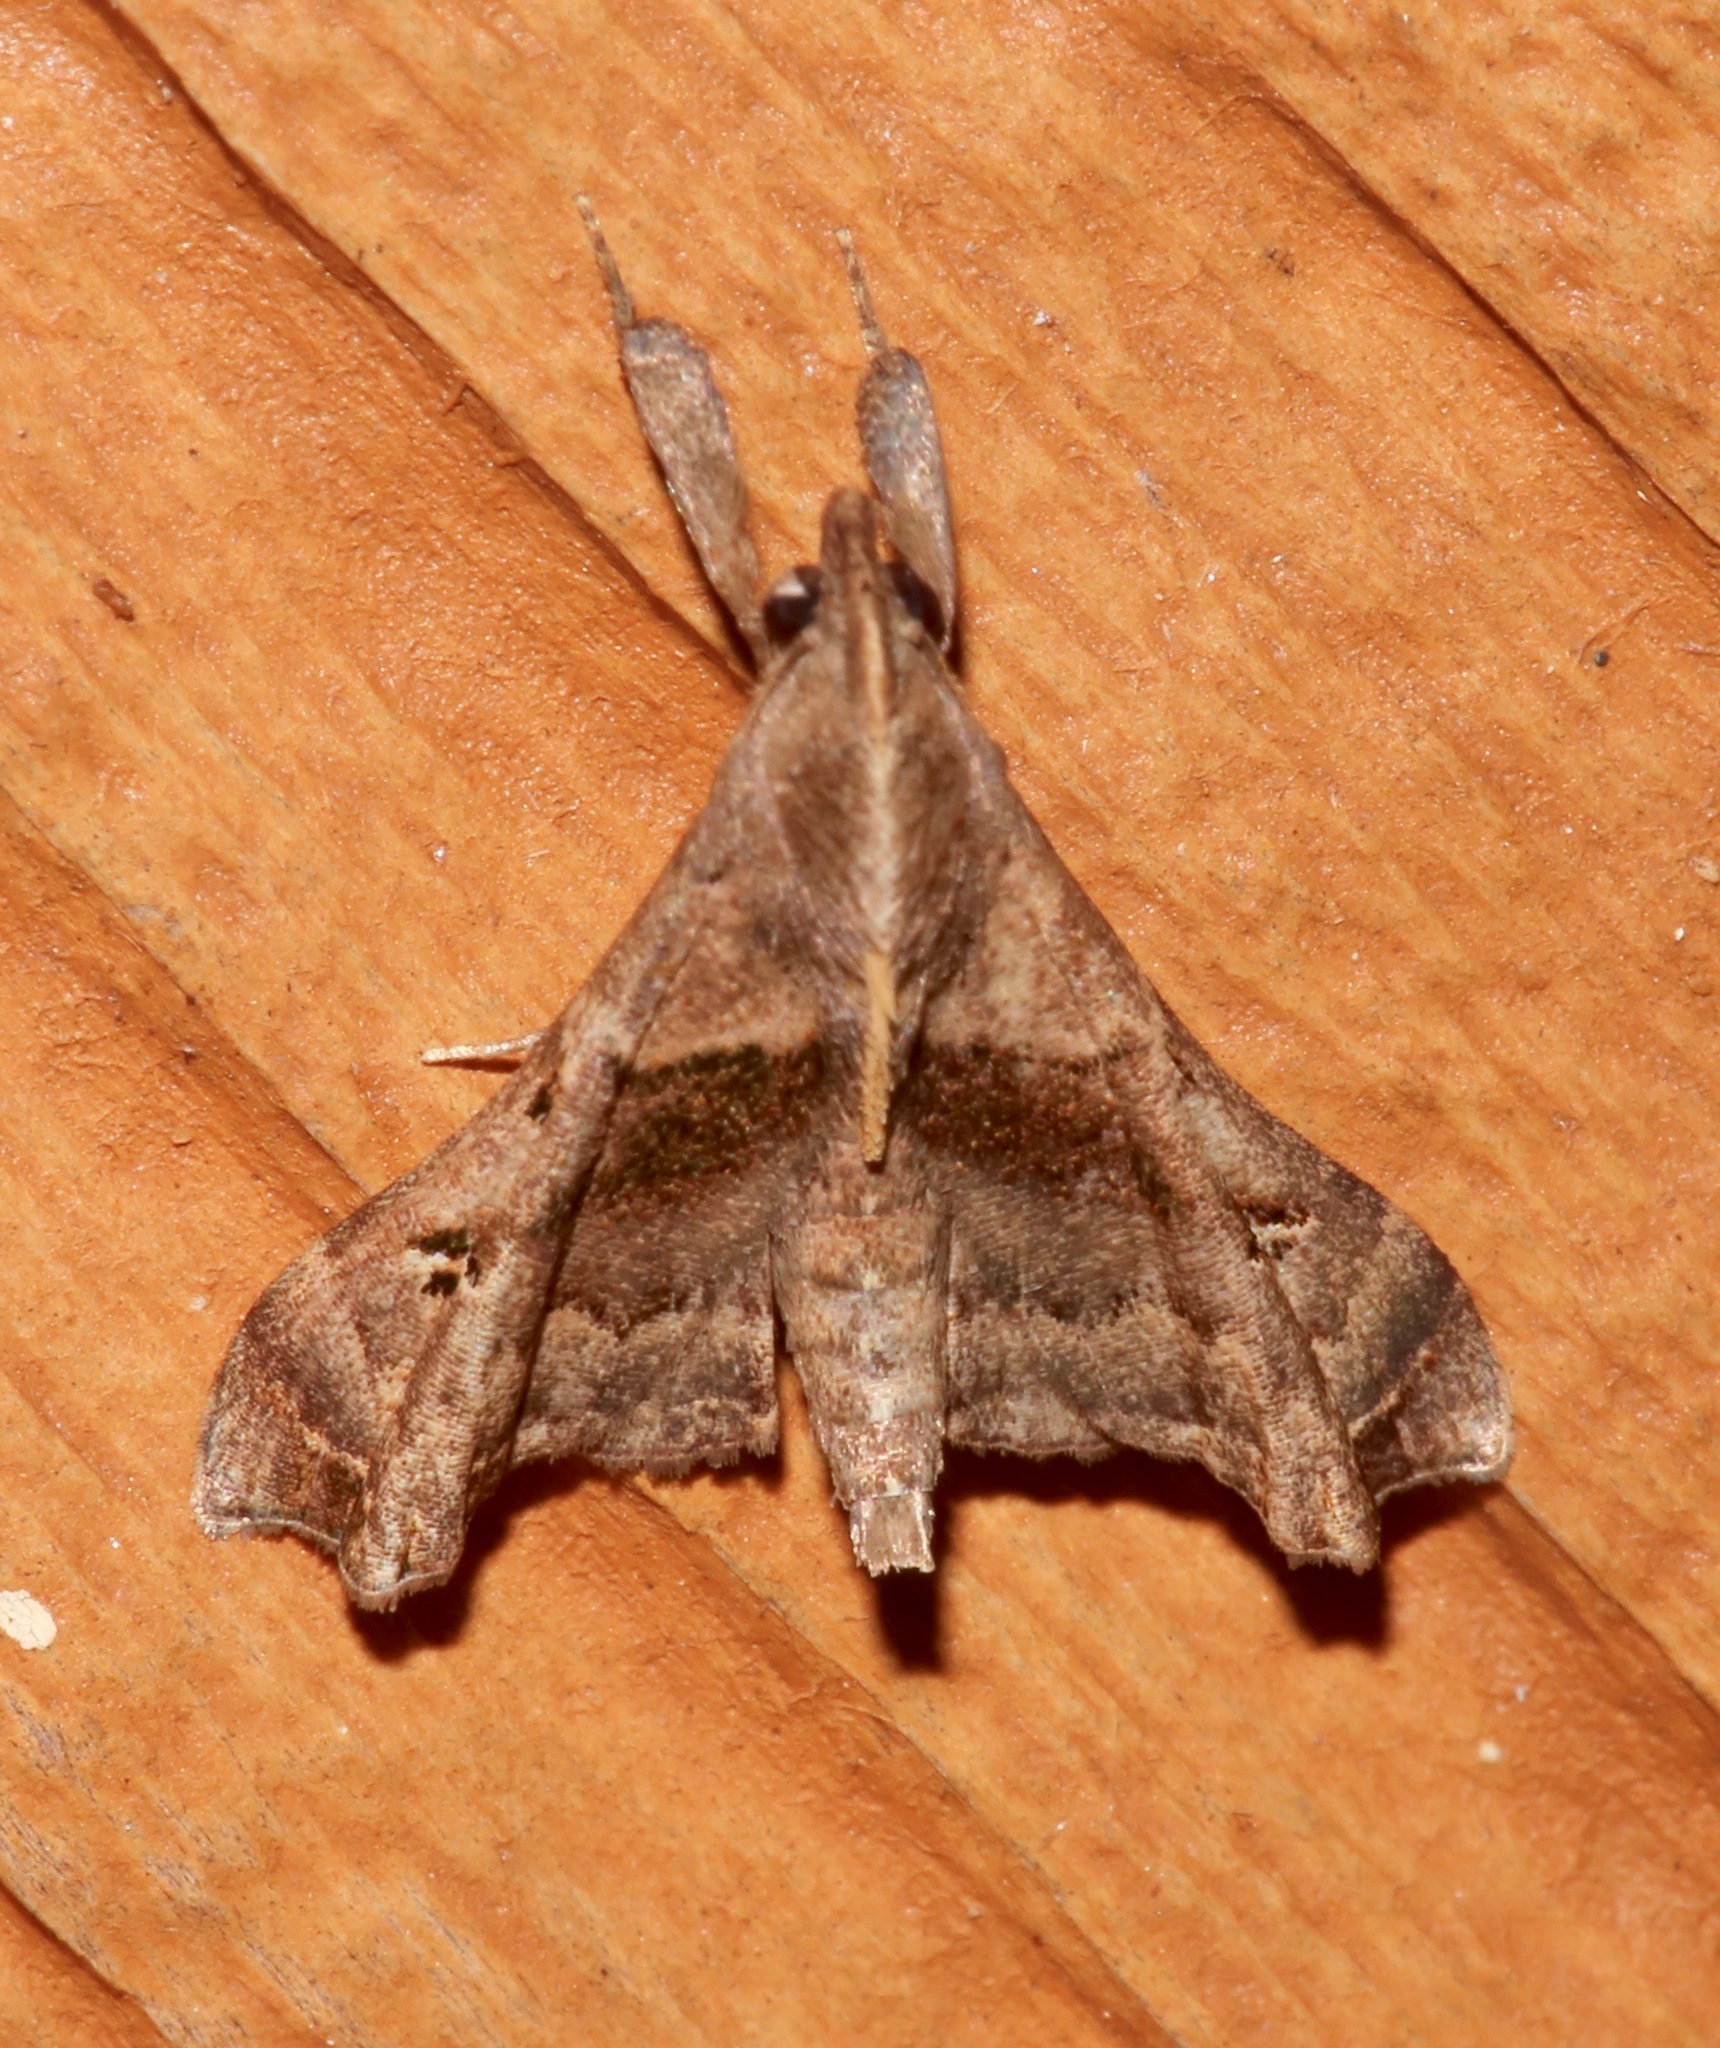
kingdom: Animalia
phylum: Arthropoda
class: Insecta
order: Lepidoptera
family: Erebidae
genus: Palthis
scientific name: Palthis asopialis
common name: Faint-spotted palthis moth
